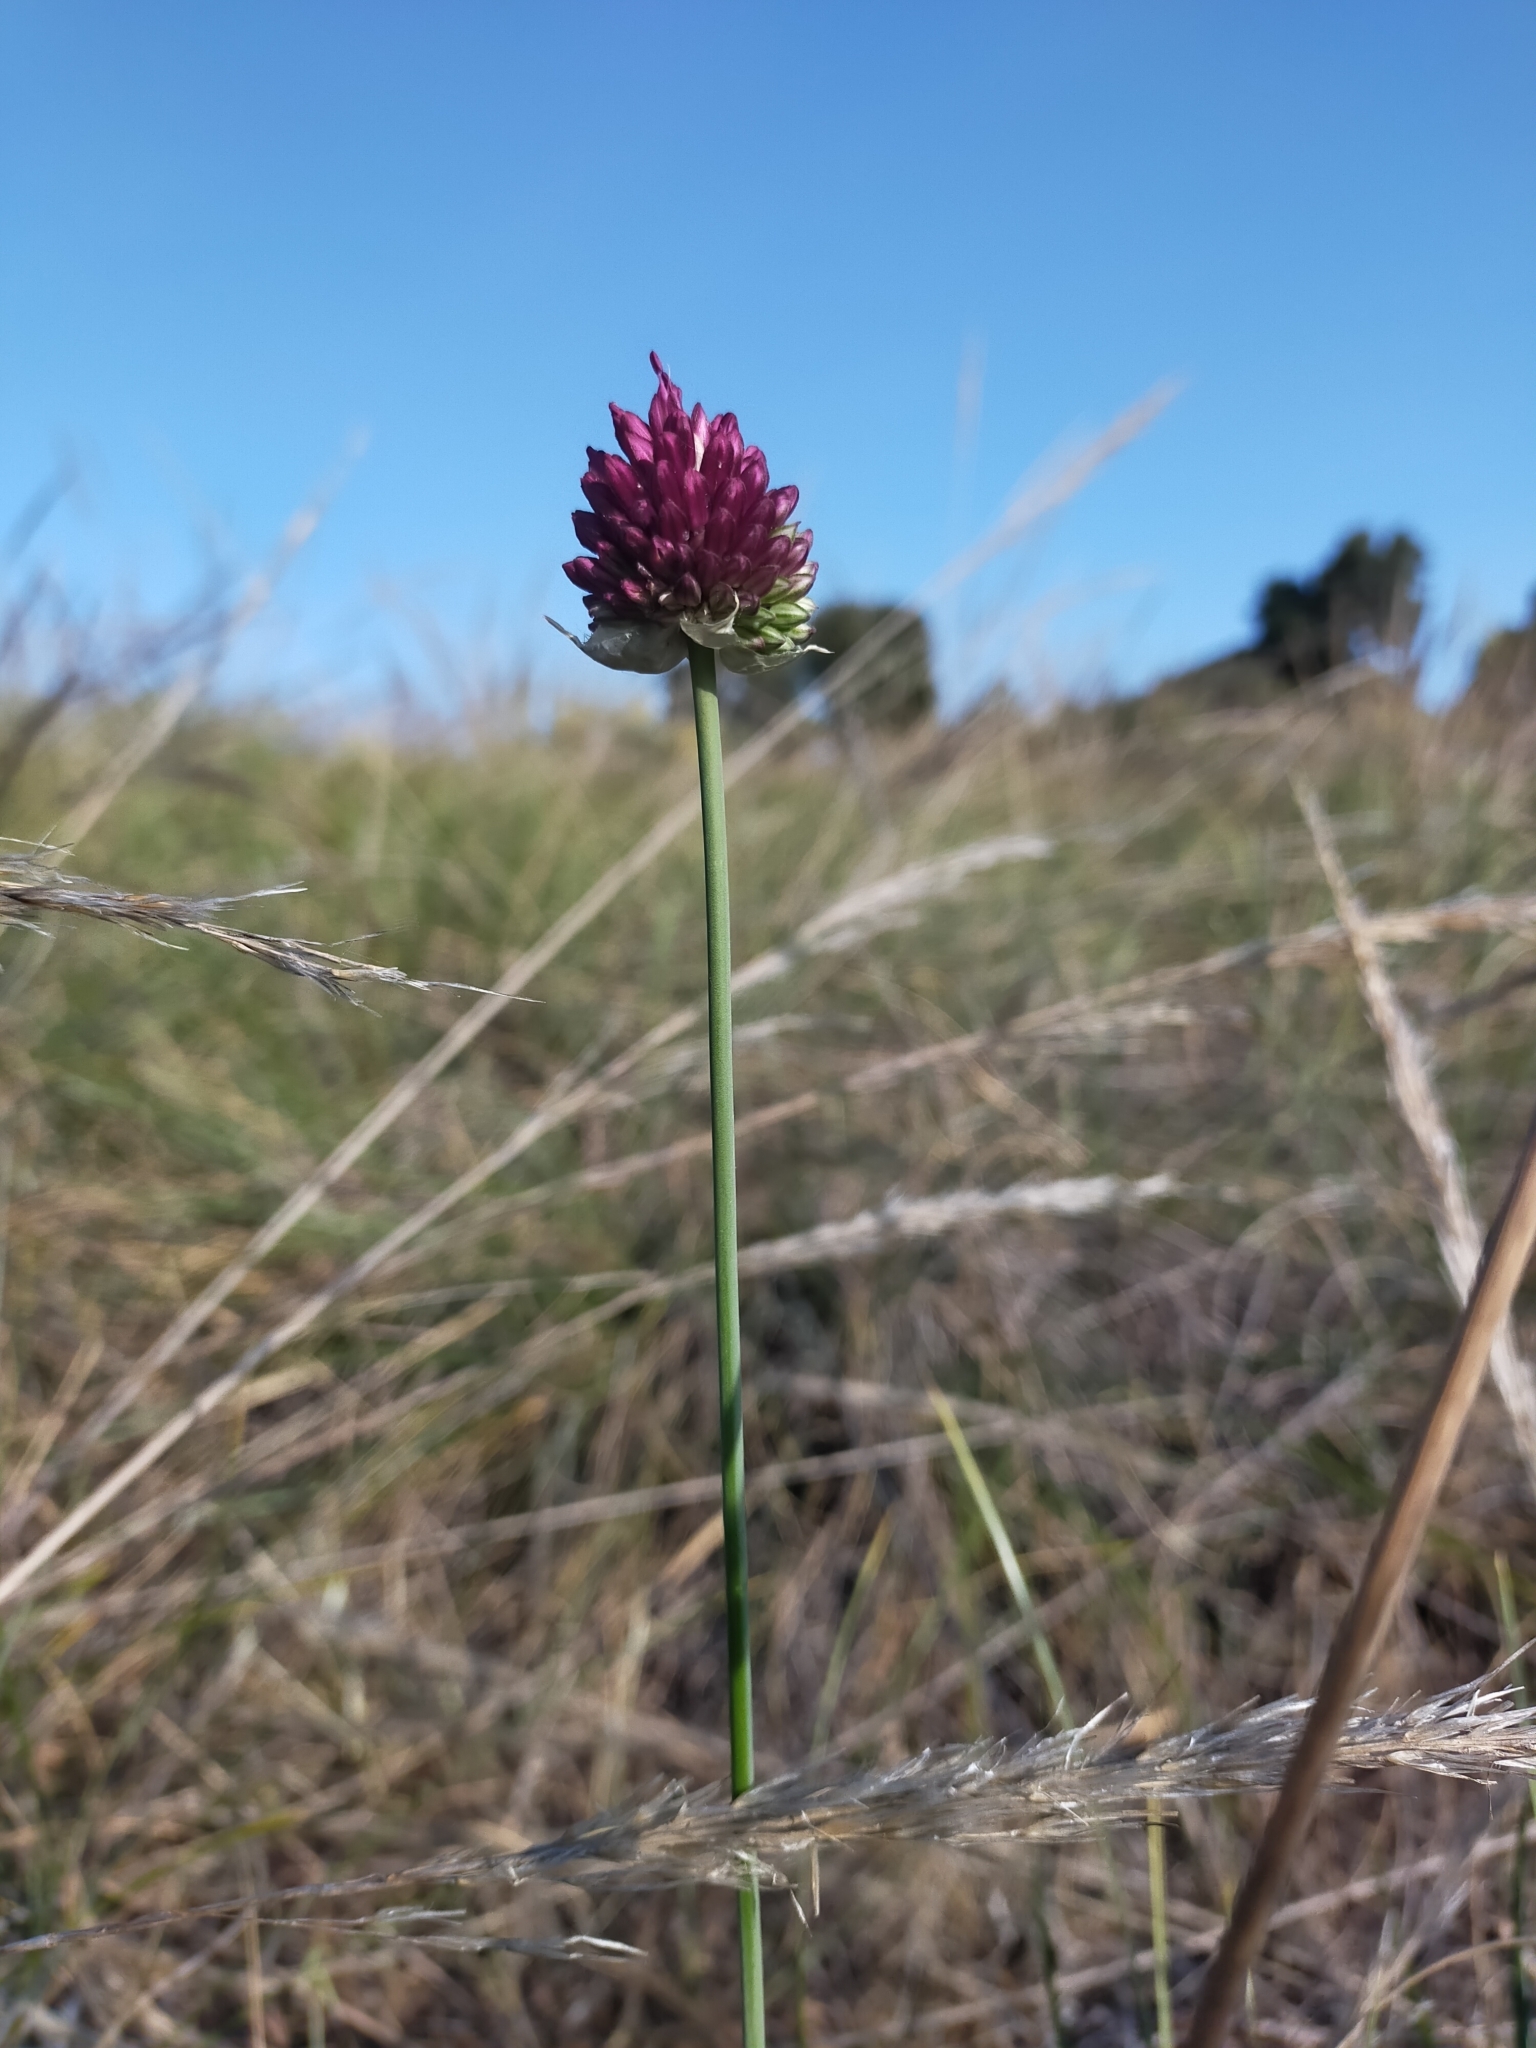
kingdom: Plantae
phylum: Tracheophyta
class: Liliopsida
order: Asparagales
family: Amaryllidaceae
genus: Allium
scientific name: Allium sphaerocephalon
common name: Round-headed leek
